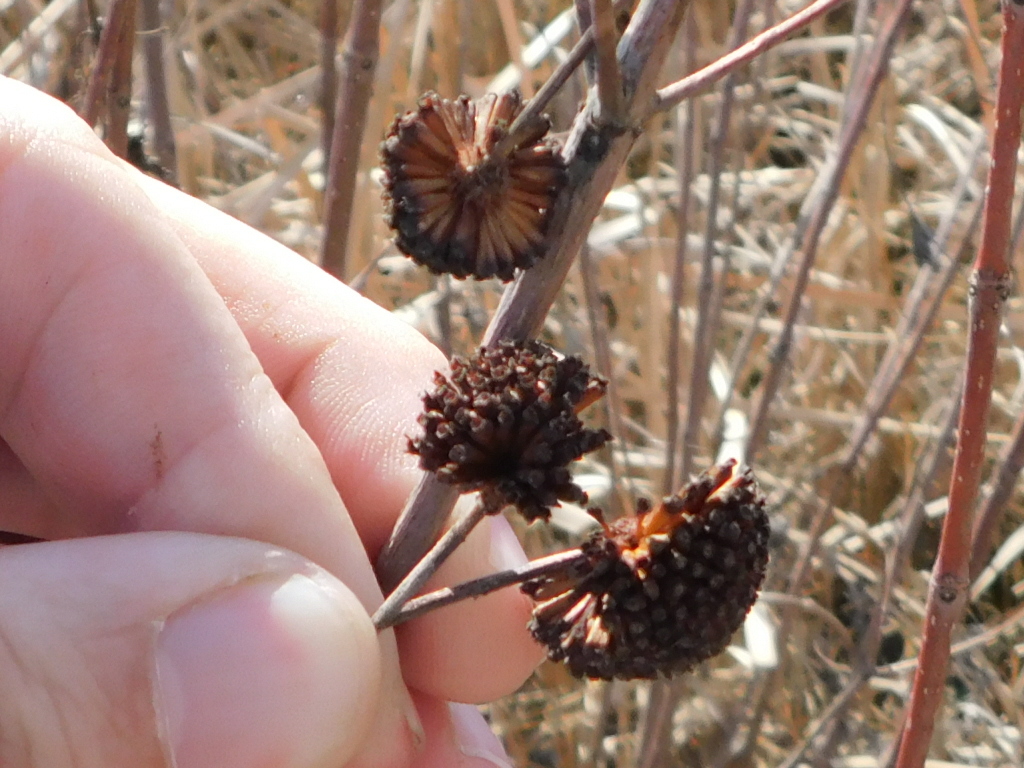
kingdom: Plantae
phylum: Tracheophyta
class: Magnoliopsida
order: Gentianales
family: Rubiaceae
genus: Cephalanthus
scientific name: Cephalanthus occidentalis
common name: Button-willow
